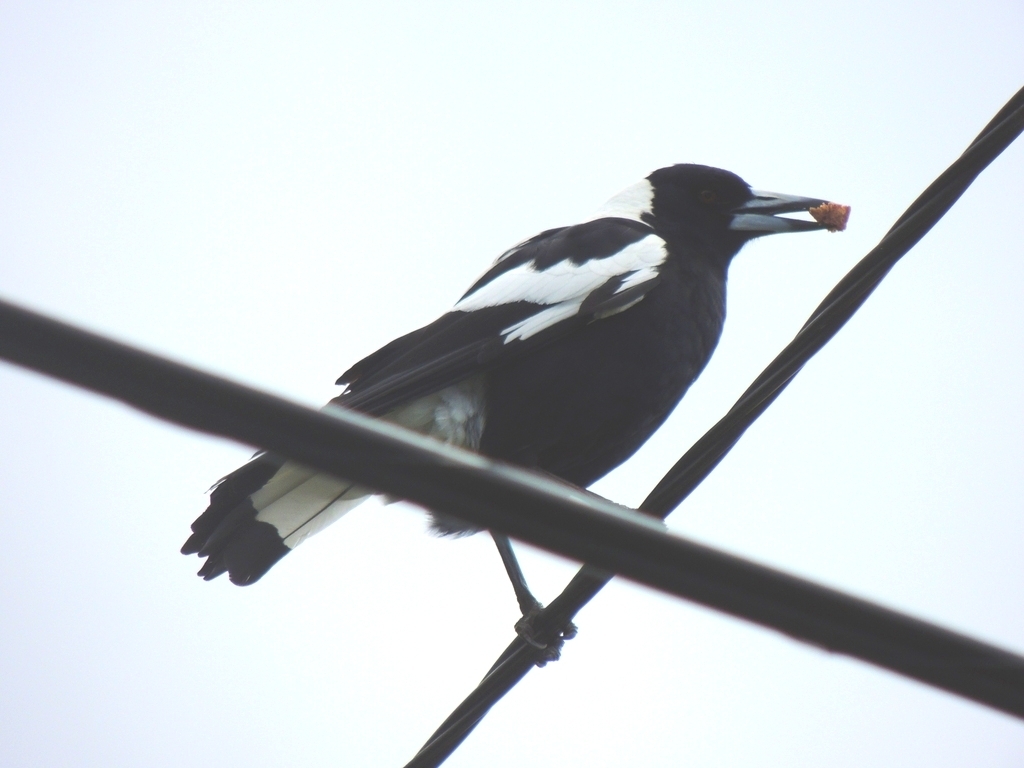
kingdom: Animalia
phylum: Chordata
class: Aves
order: Passeriformes
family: Cracticidae
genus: Gymnorhina
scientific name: Gymnorhina tibicen
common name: Australian magpie
